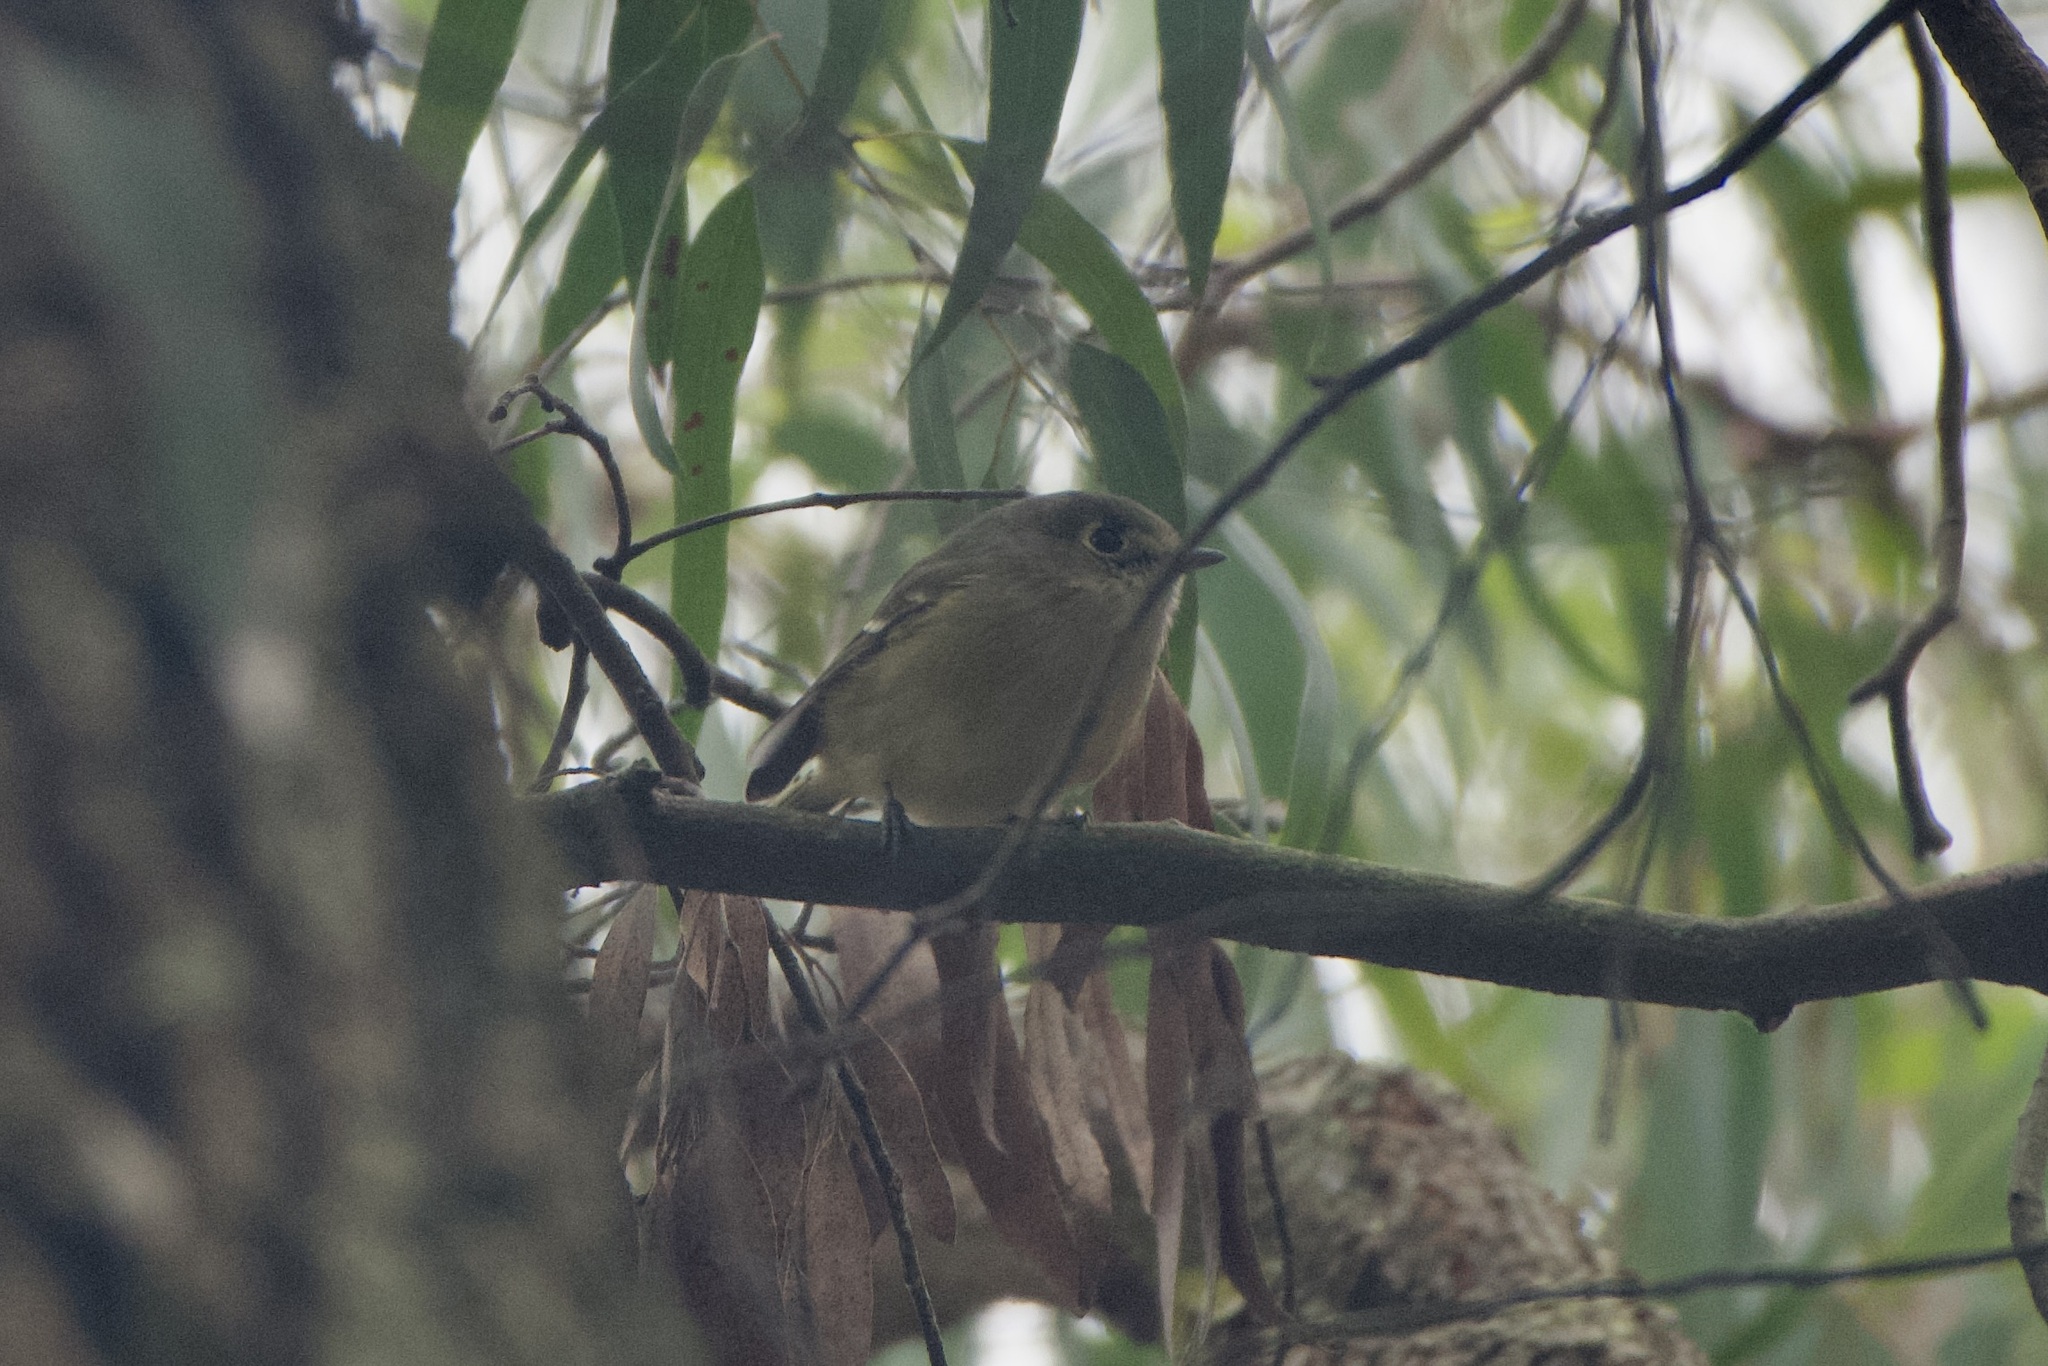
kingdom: Animalia
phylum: Chordata
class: Aves
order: Passeriformes
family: Vireonidae
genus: Vireo
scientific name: Vireo huttoni
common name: Hutton's vireo
